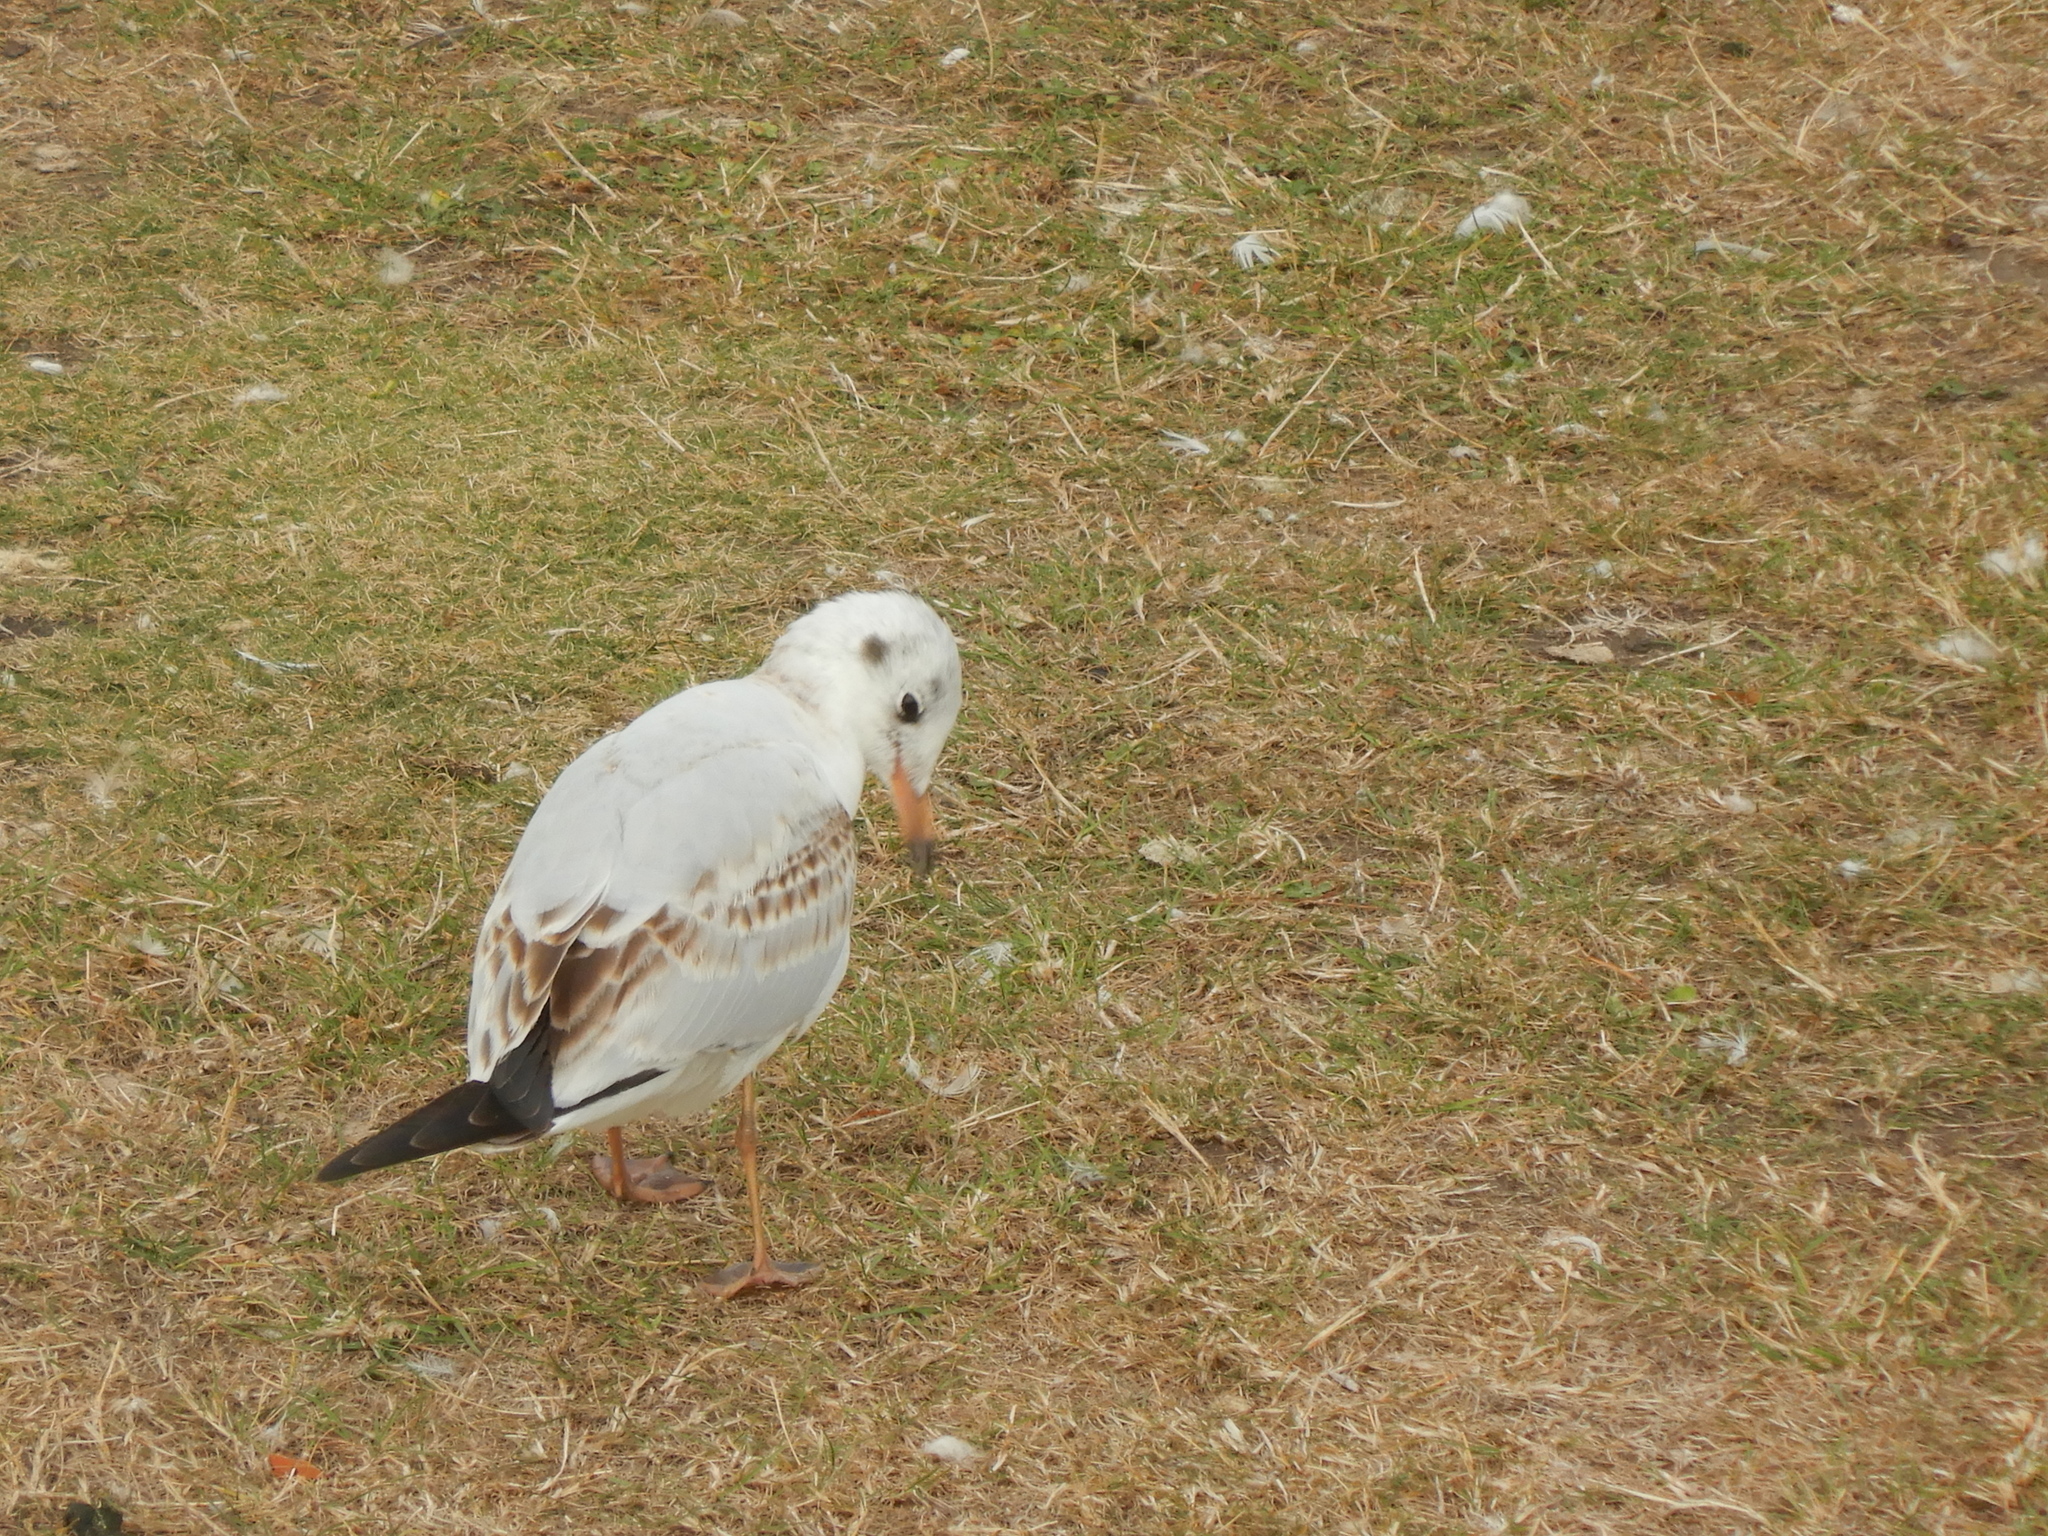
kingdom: Animalia
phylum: Chordata
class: Aves
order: Charadriiformes
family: Laridae
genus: Chroicocephalus
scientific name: Chroicocephalus ridibundus
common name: Black-headed gull
